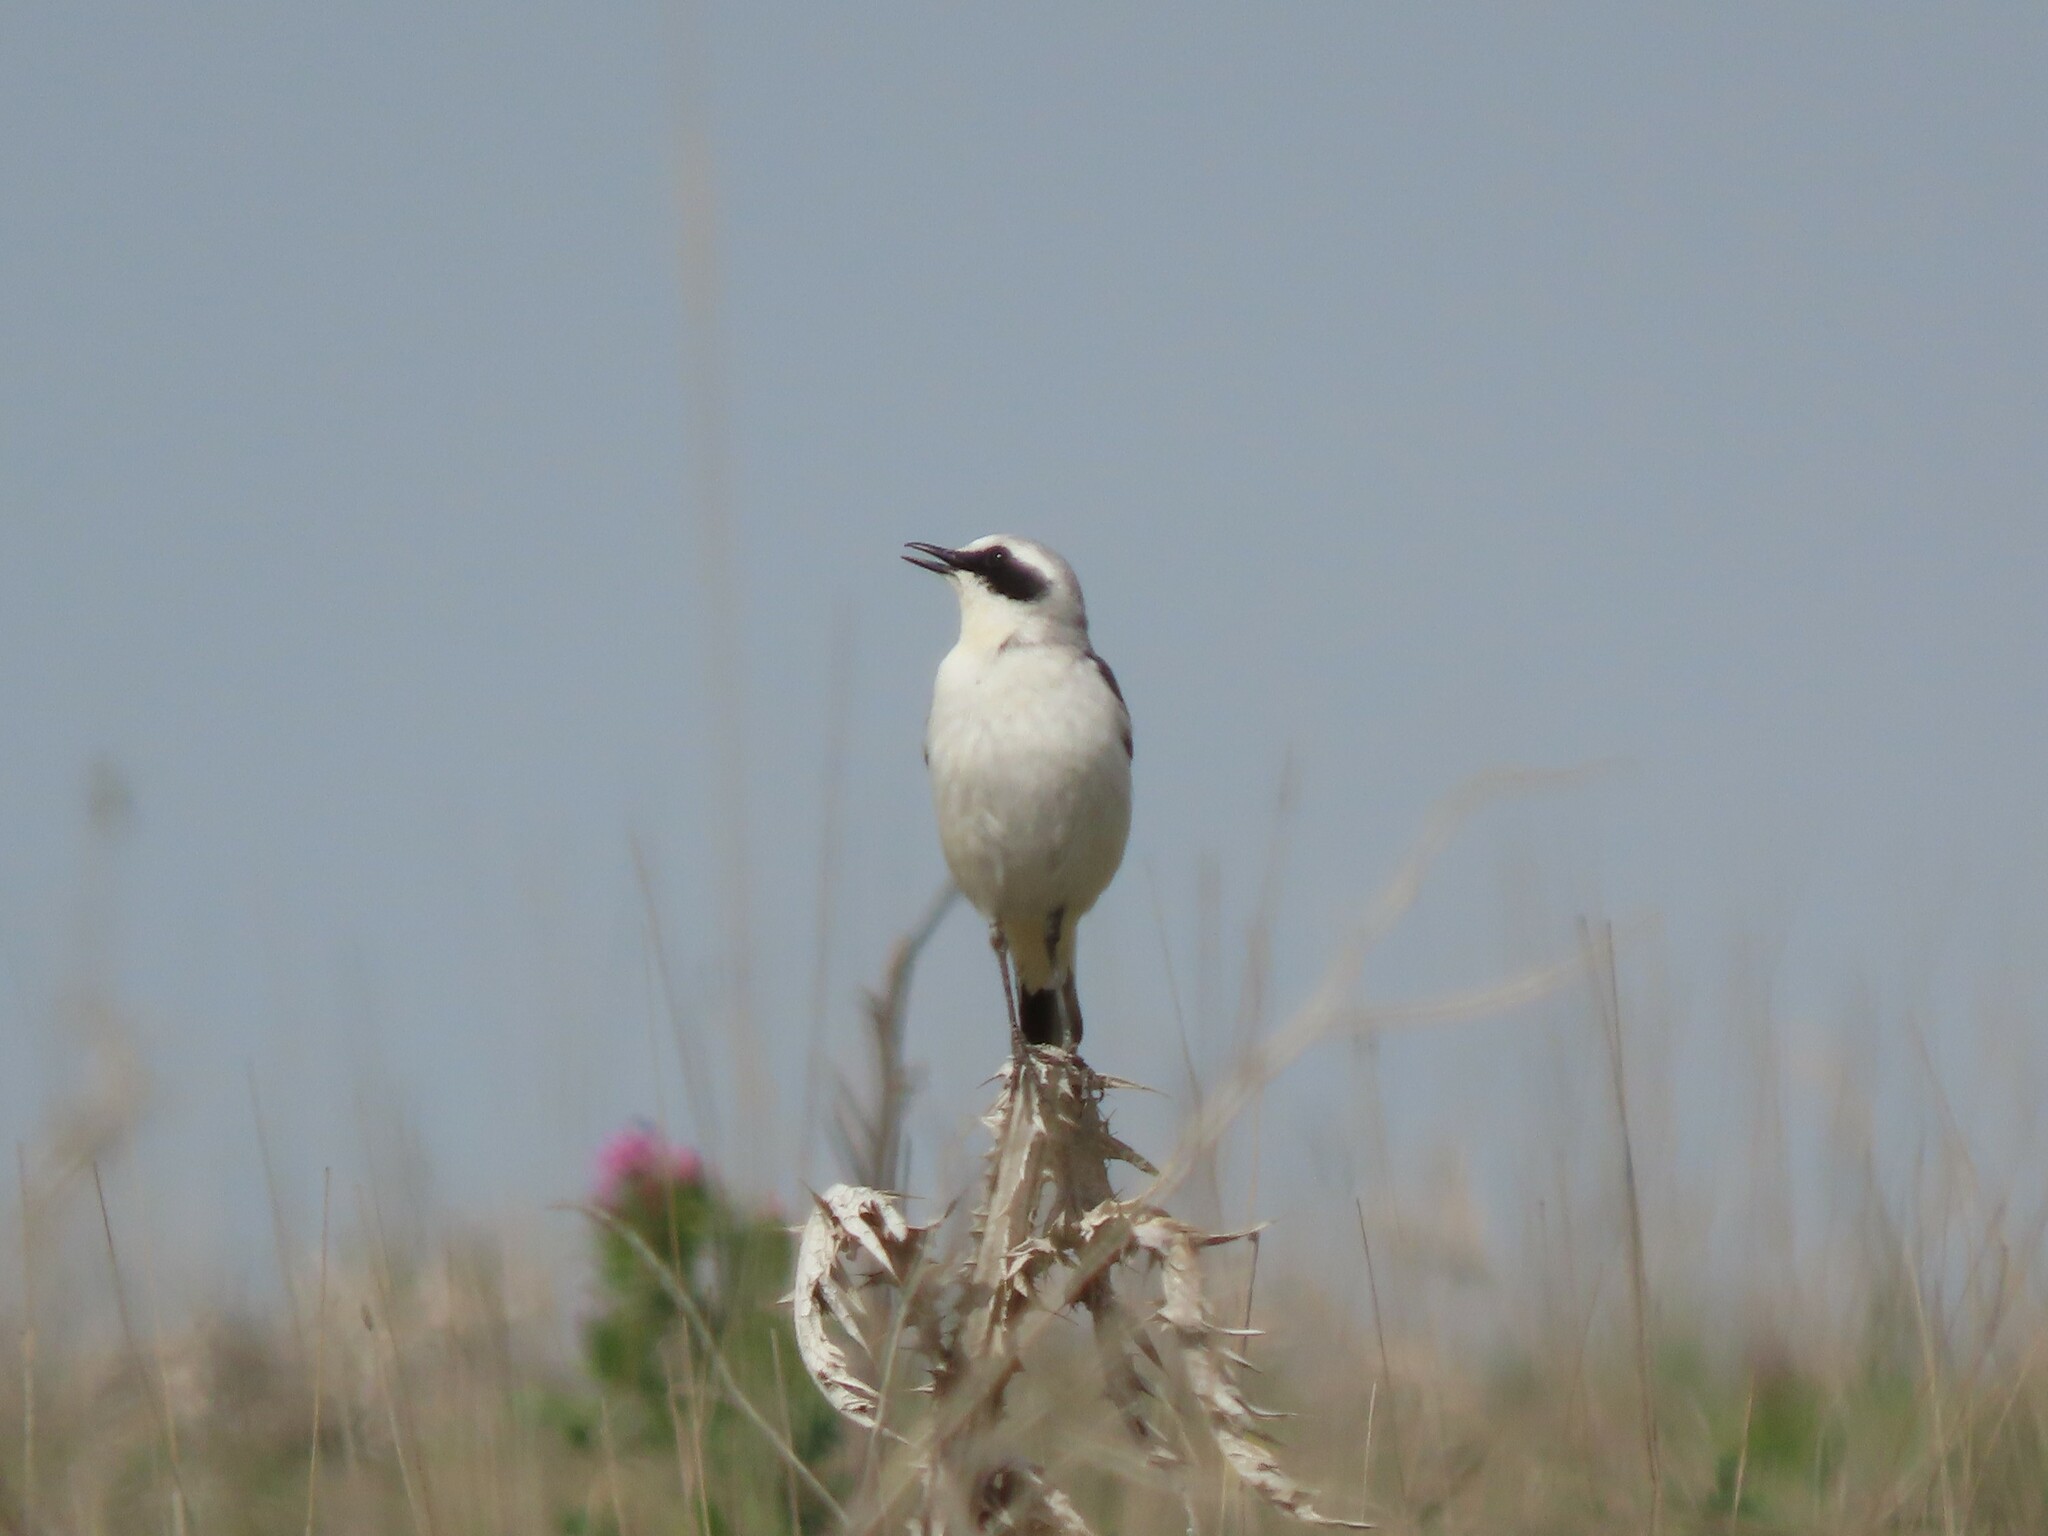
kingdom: Animalia
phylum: Chordata
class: Aves
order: Passeriformes
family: Muscicapidae
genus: Oenanthe
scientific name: Oenanthe oenanthe
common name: Northern wheatear
